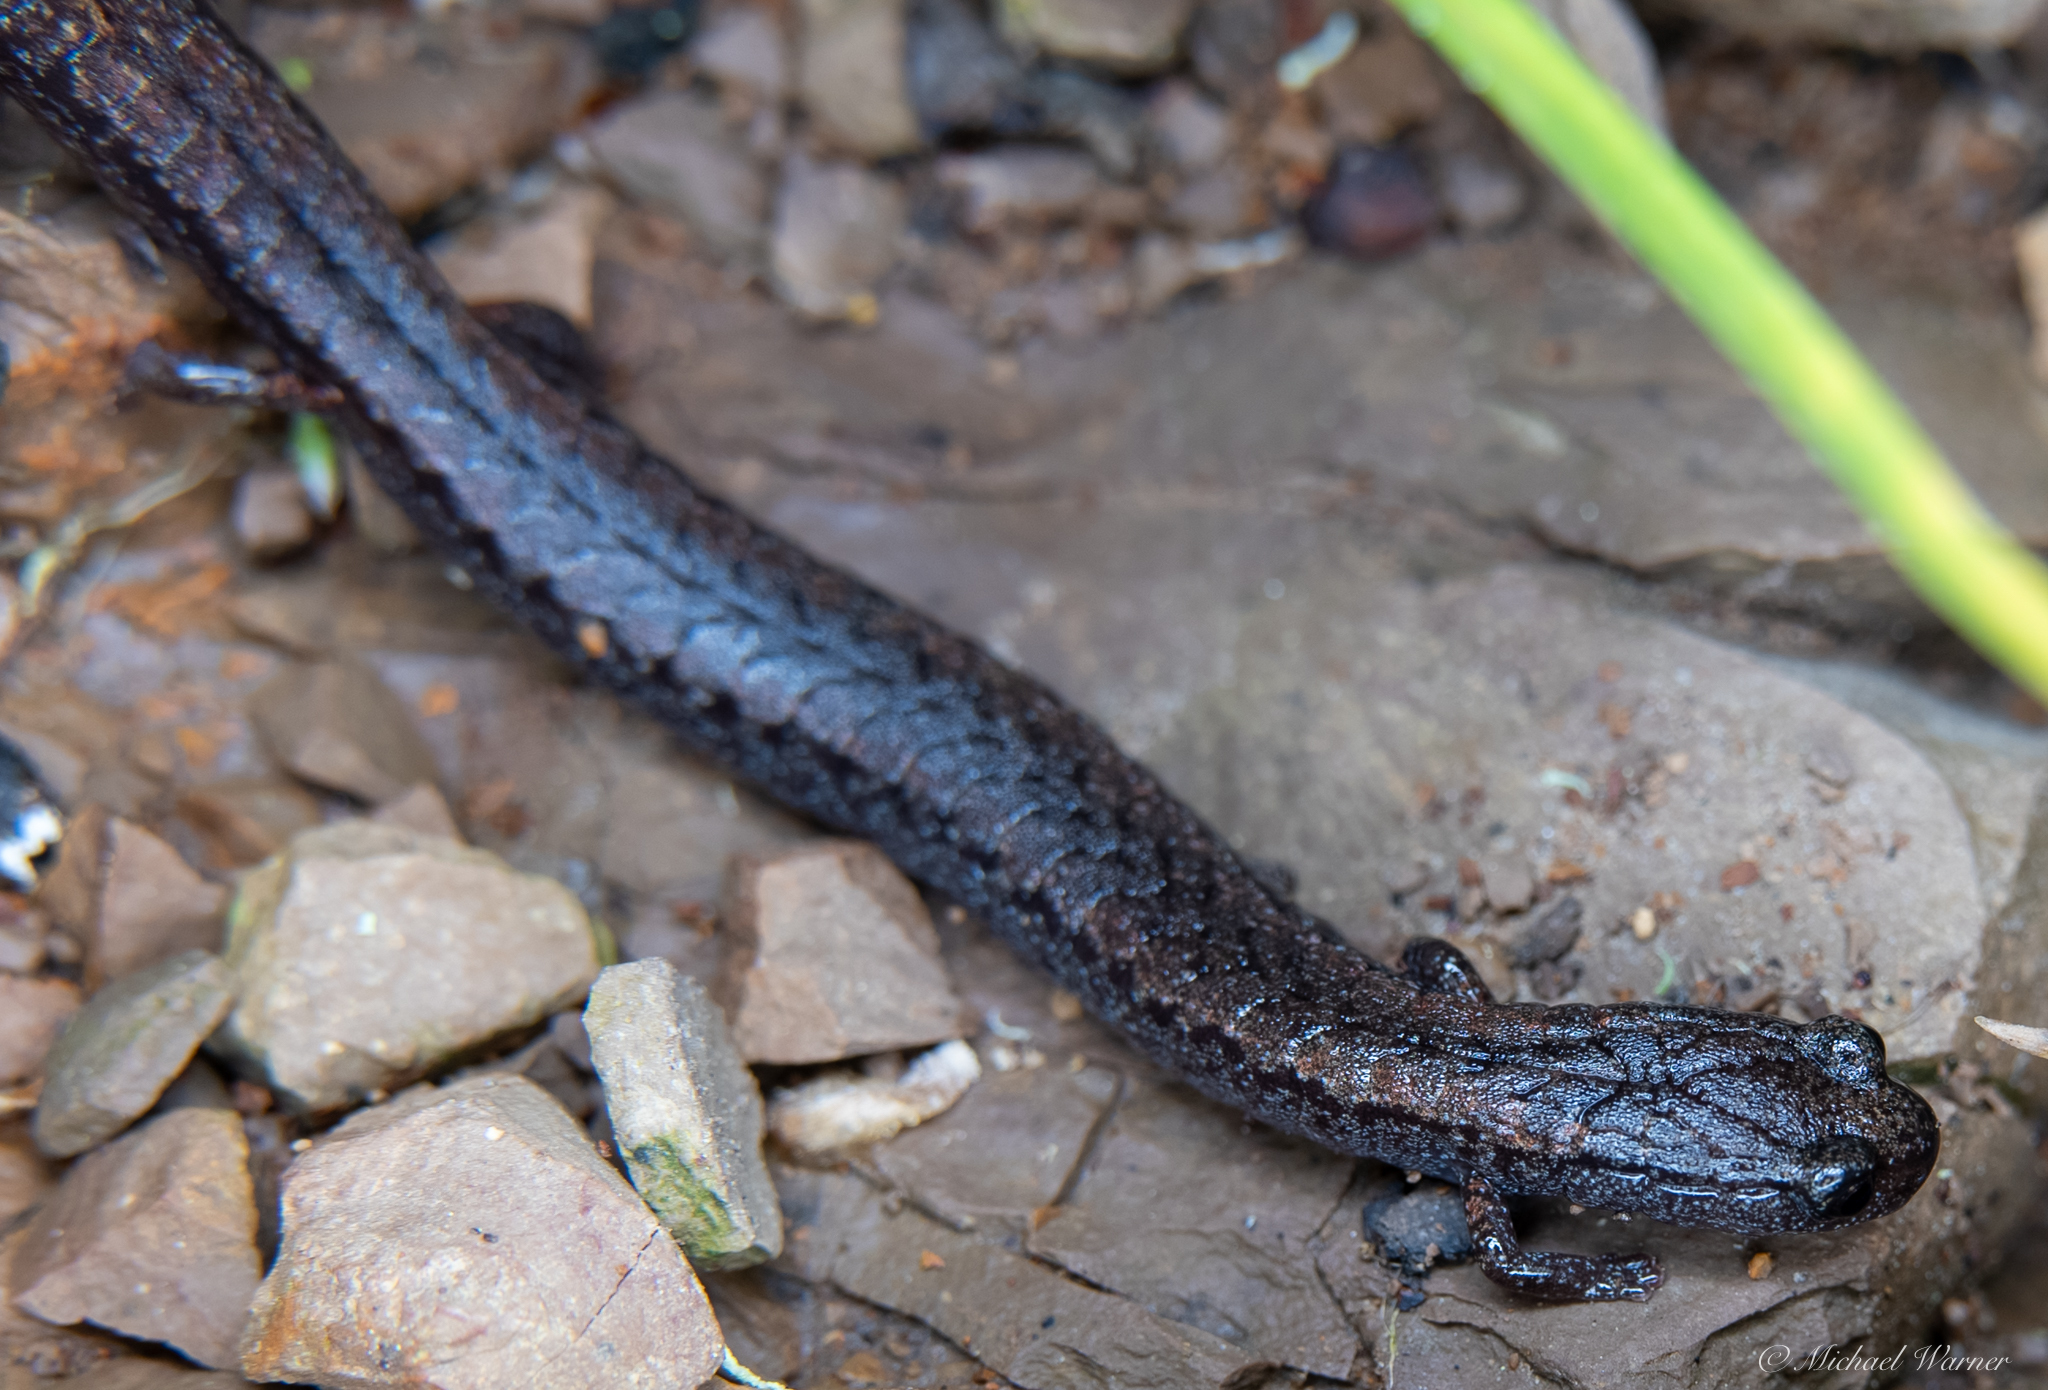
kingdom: Animalia
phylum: Chordata
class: Amphibia
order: Caudata
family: Plethodontidae
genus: Batrachoseps
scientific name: Batrachoseps attenuatus
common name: California slender salamander
